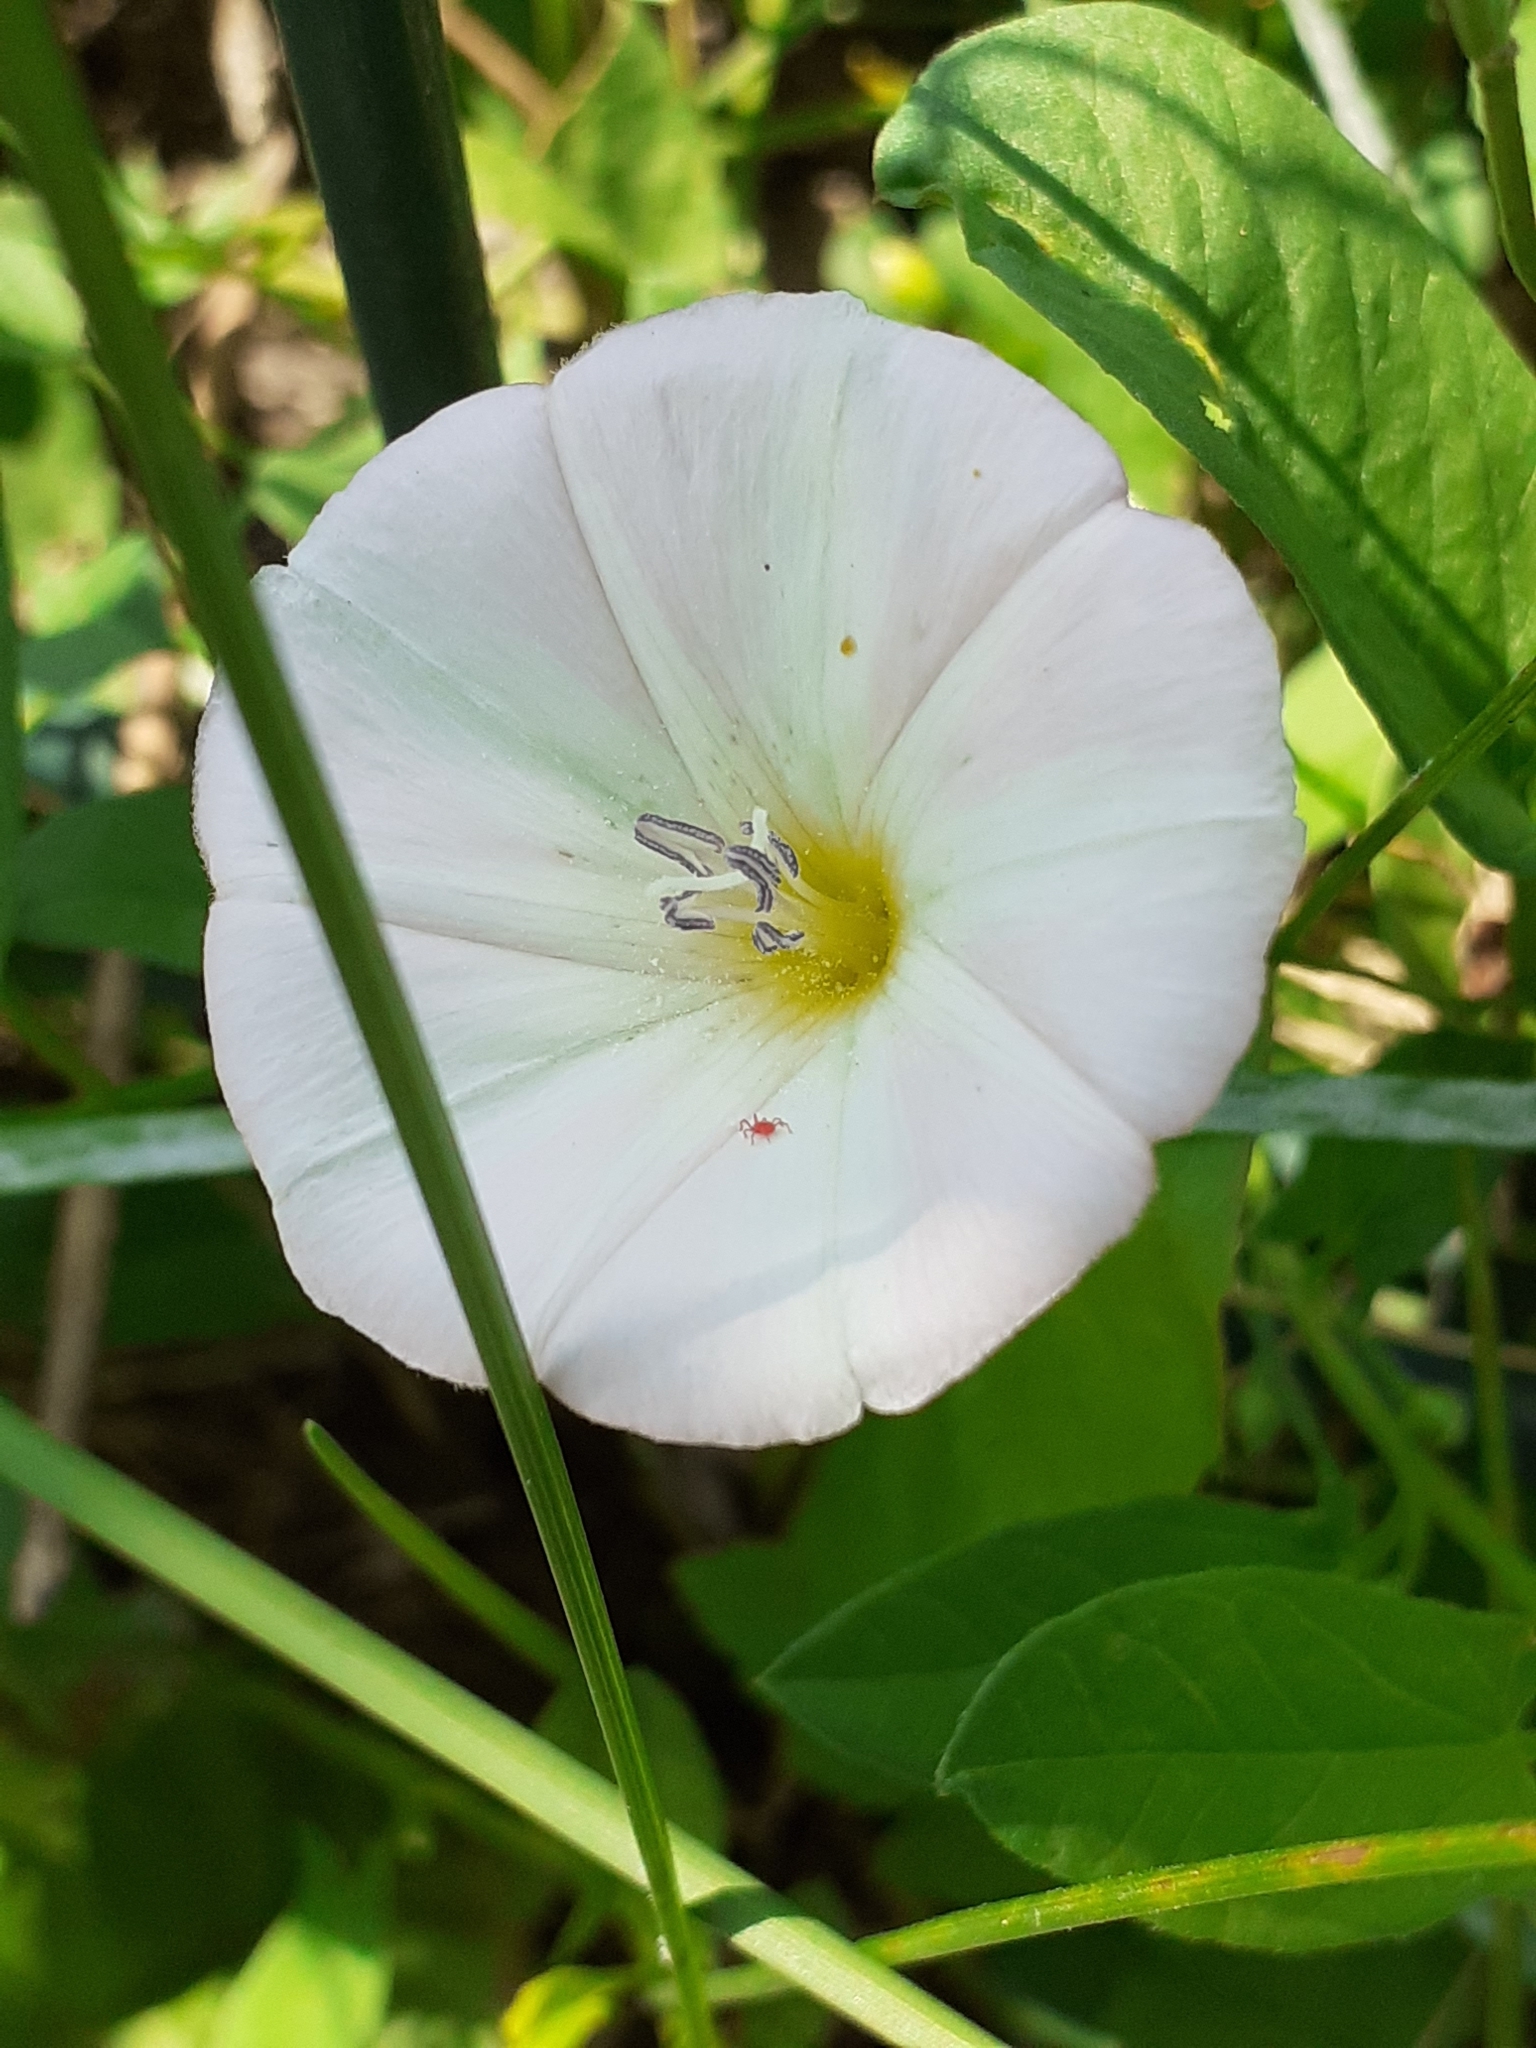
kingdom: Plantae
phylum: Tracheophyta
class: Magnoliopsida
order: Solanales
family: Convolvulaceae
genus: Convolvulus
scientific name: Convolvulus arvensis
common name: Field bindweed
